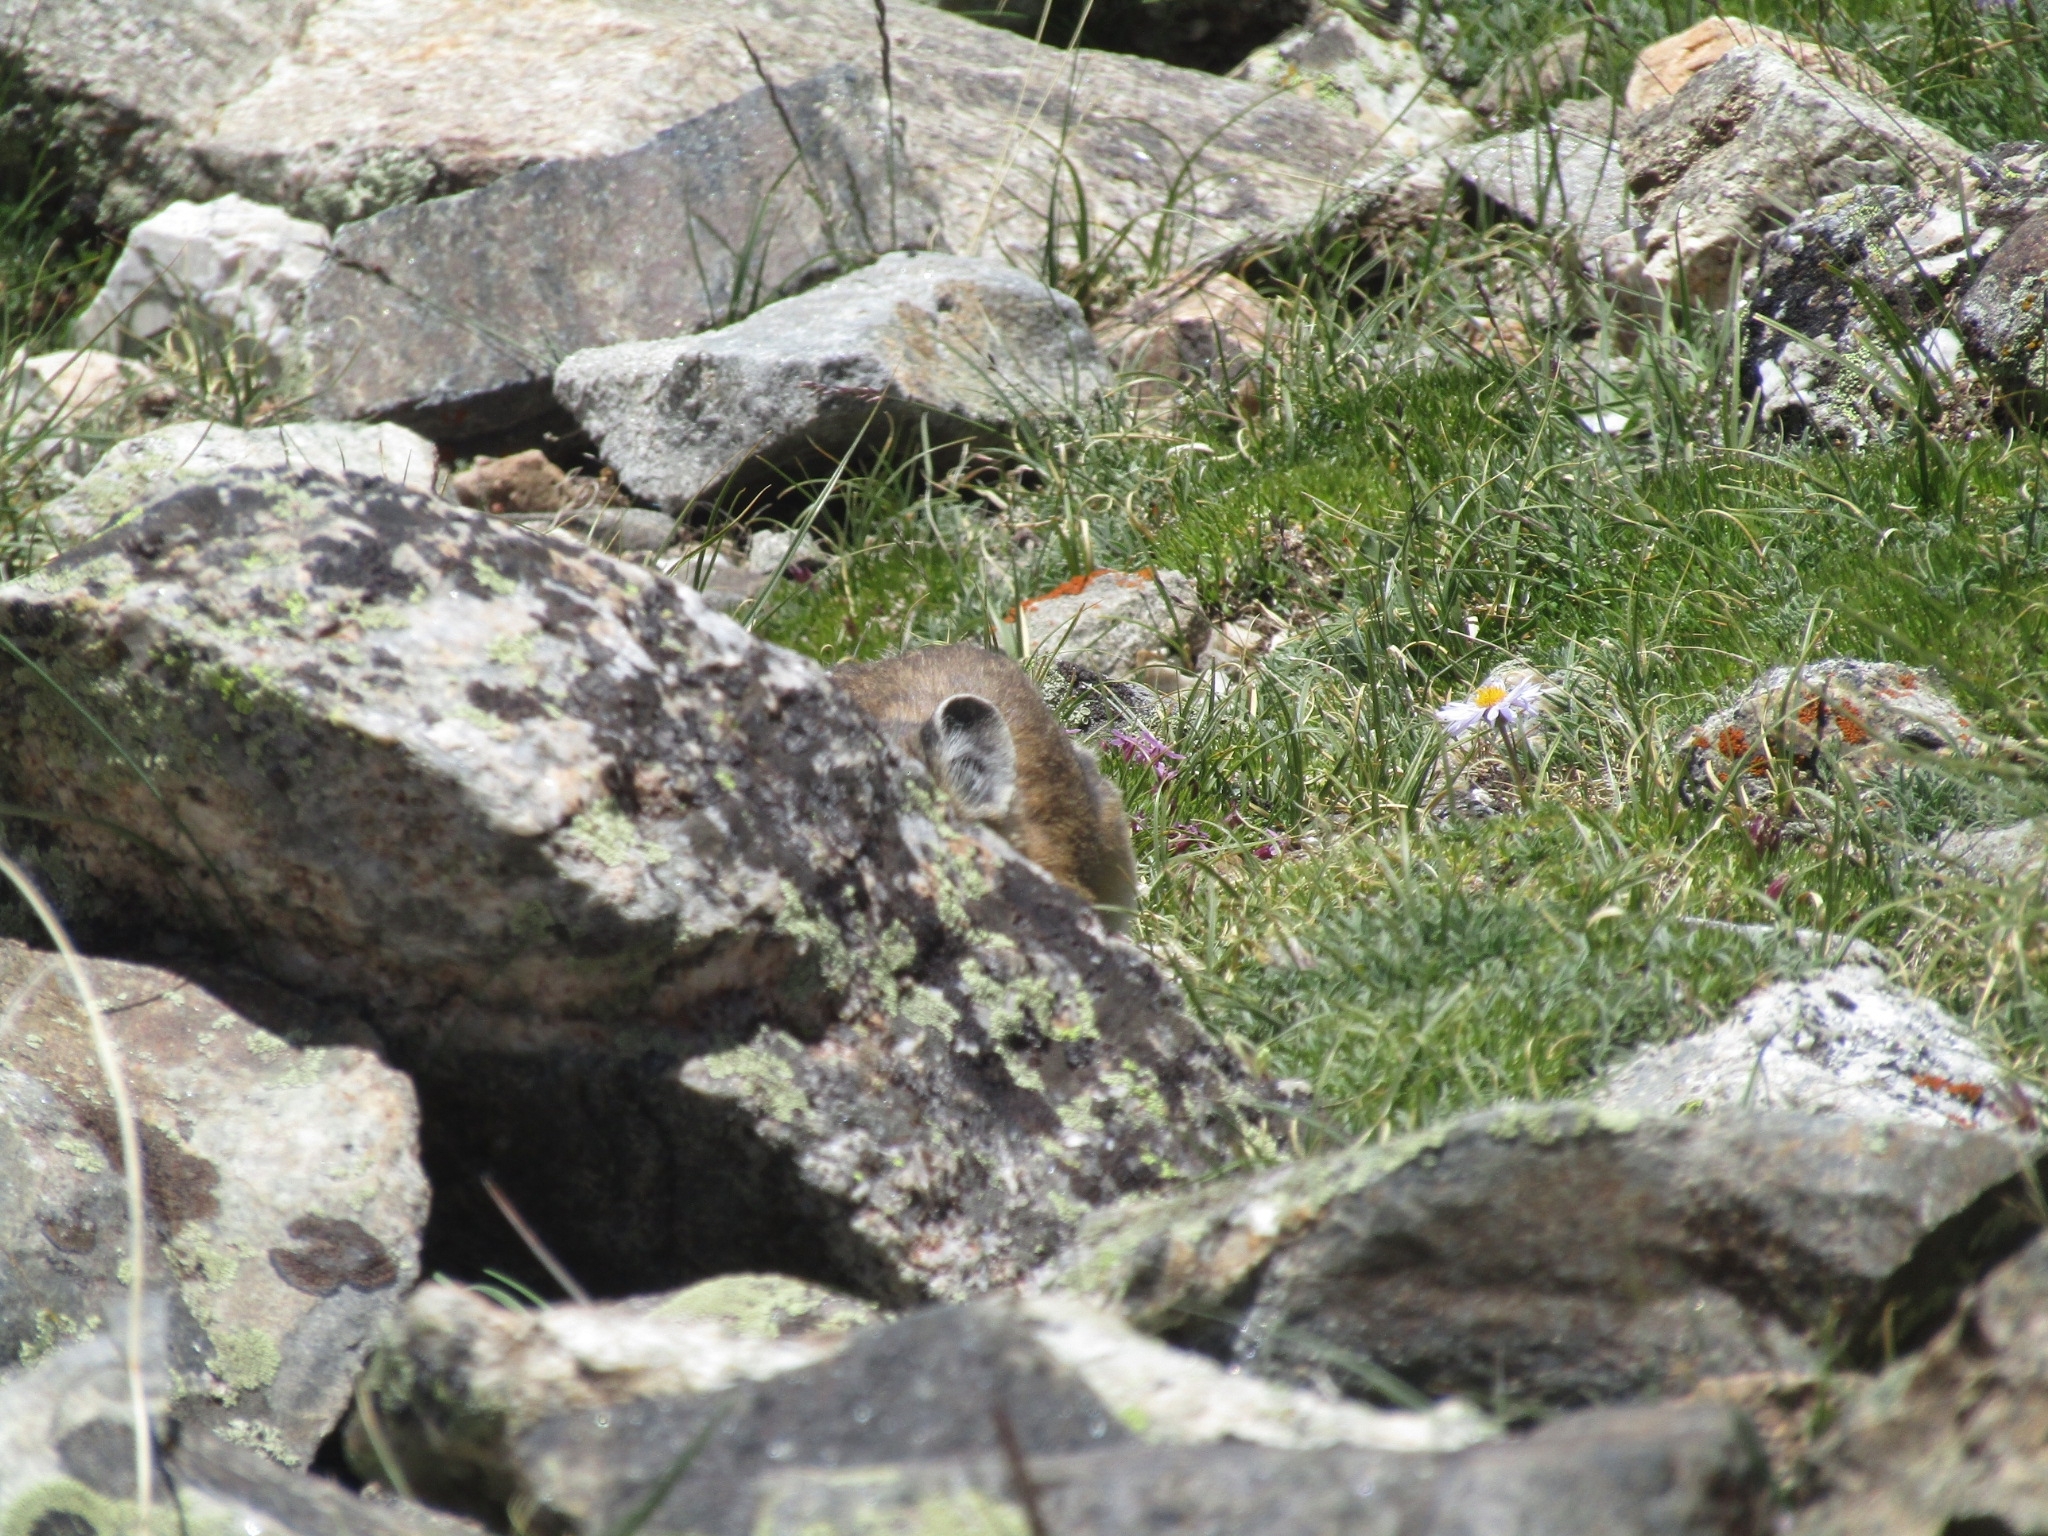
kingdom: Animalia
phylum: Chordata
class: Mammalia
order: Lagomorpha
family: Ochotonidae
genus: Ochotona
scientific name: Ochotona princeps
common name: American pika
